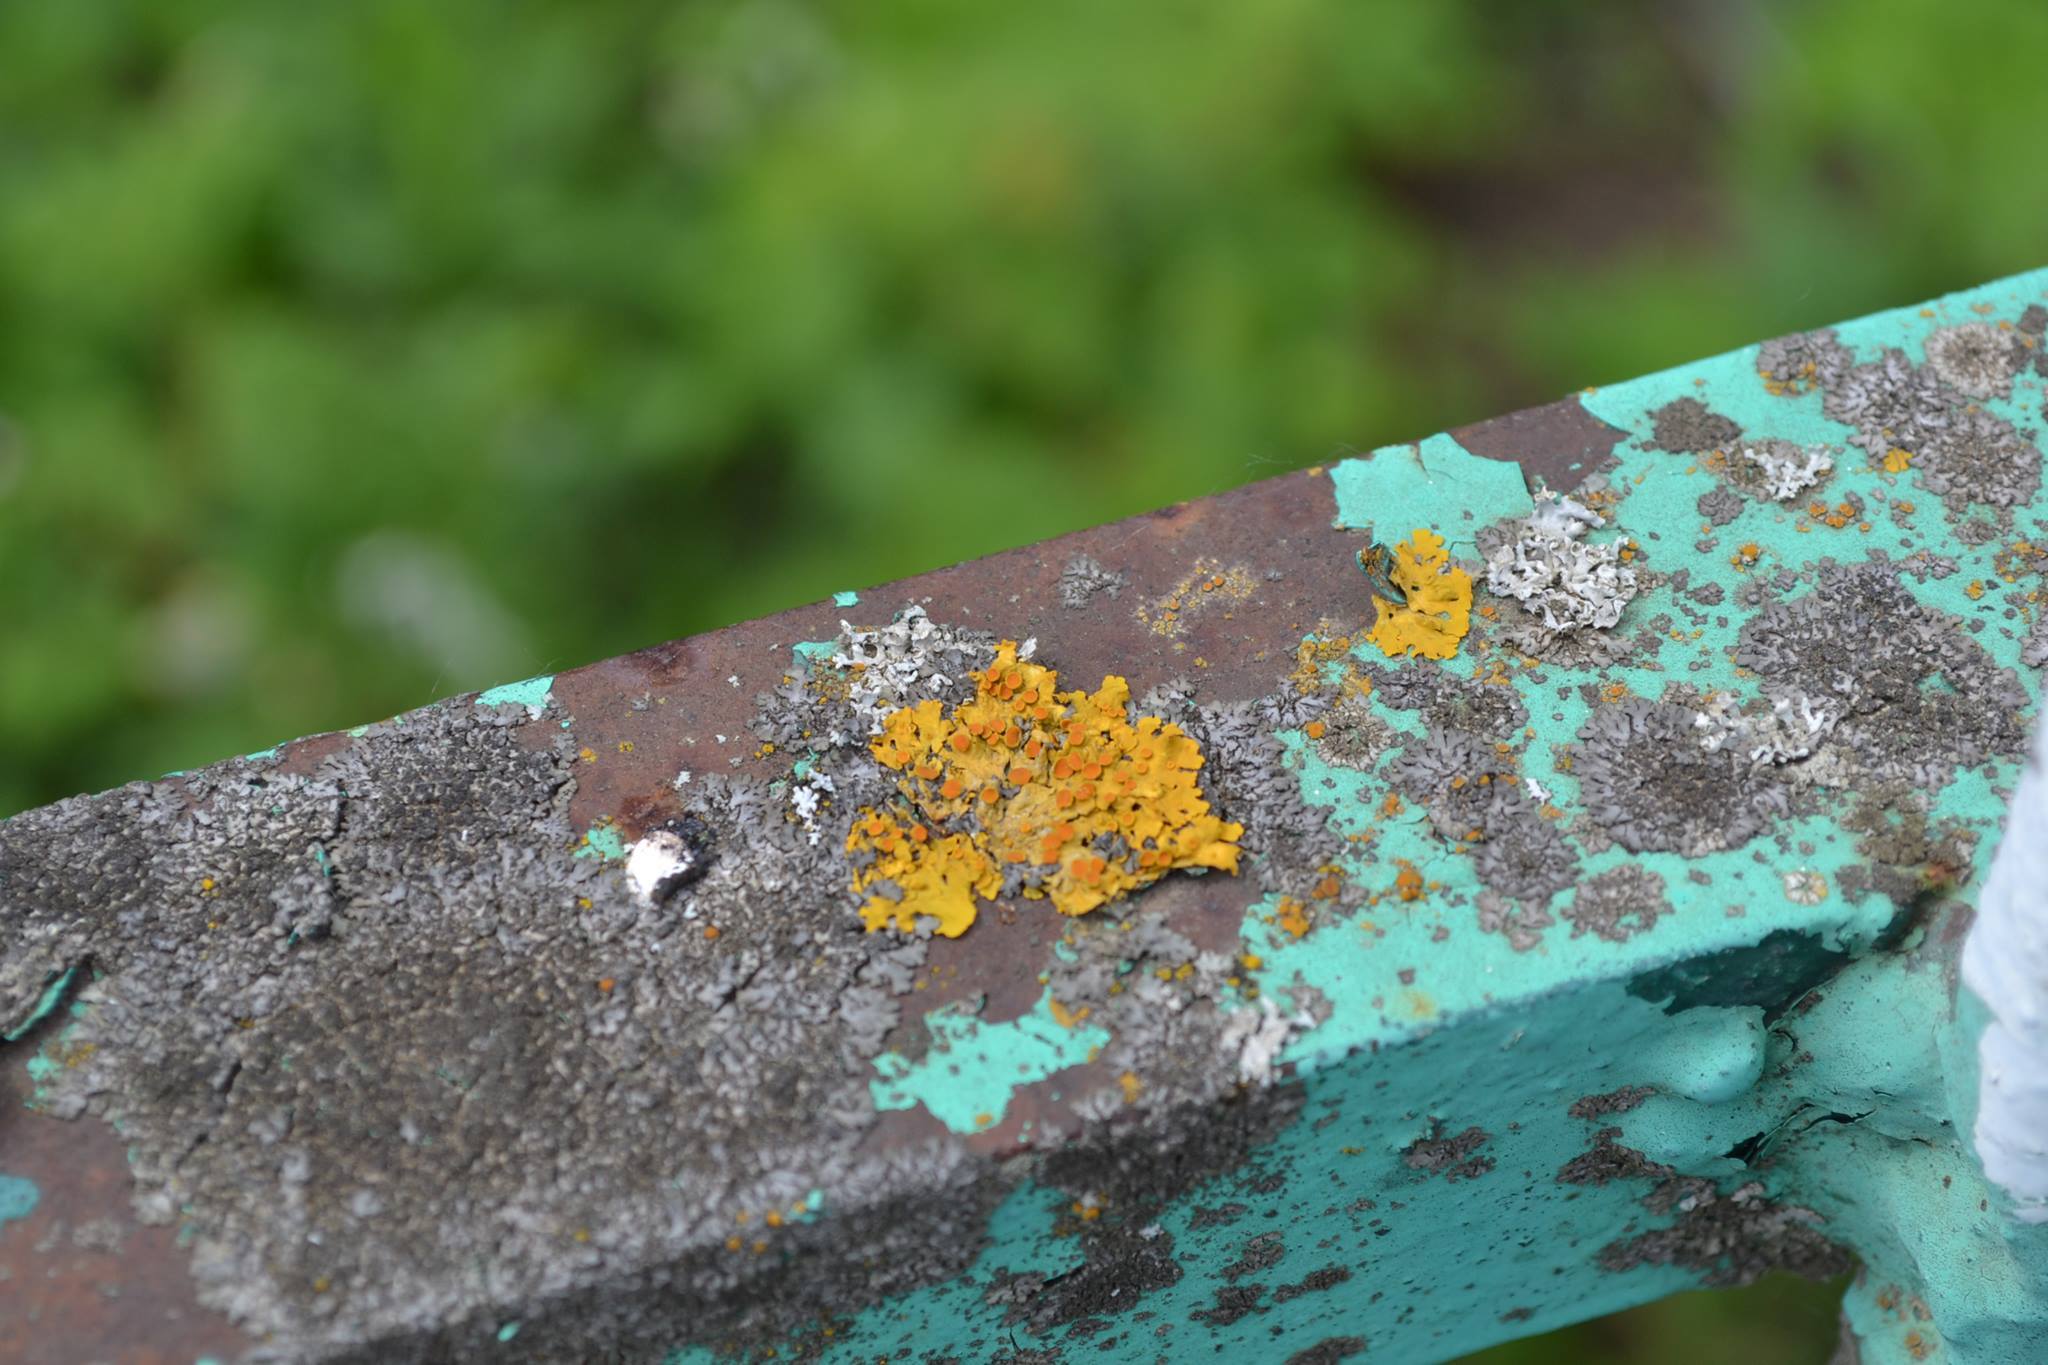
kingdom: Fungi
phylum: Ascomycota
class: Lecanoromycetes
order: Teloschistales
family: Teloschistaceae
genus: Xanthoria
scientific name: Xanthoria parietina
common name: Common orange lichen
